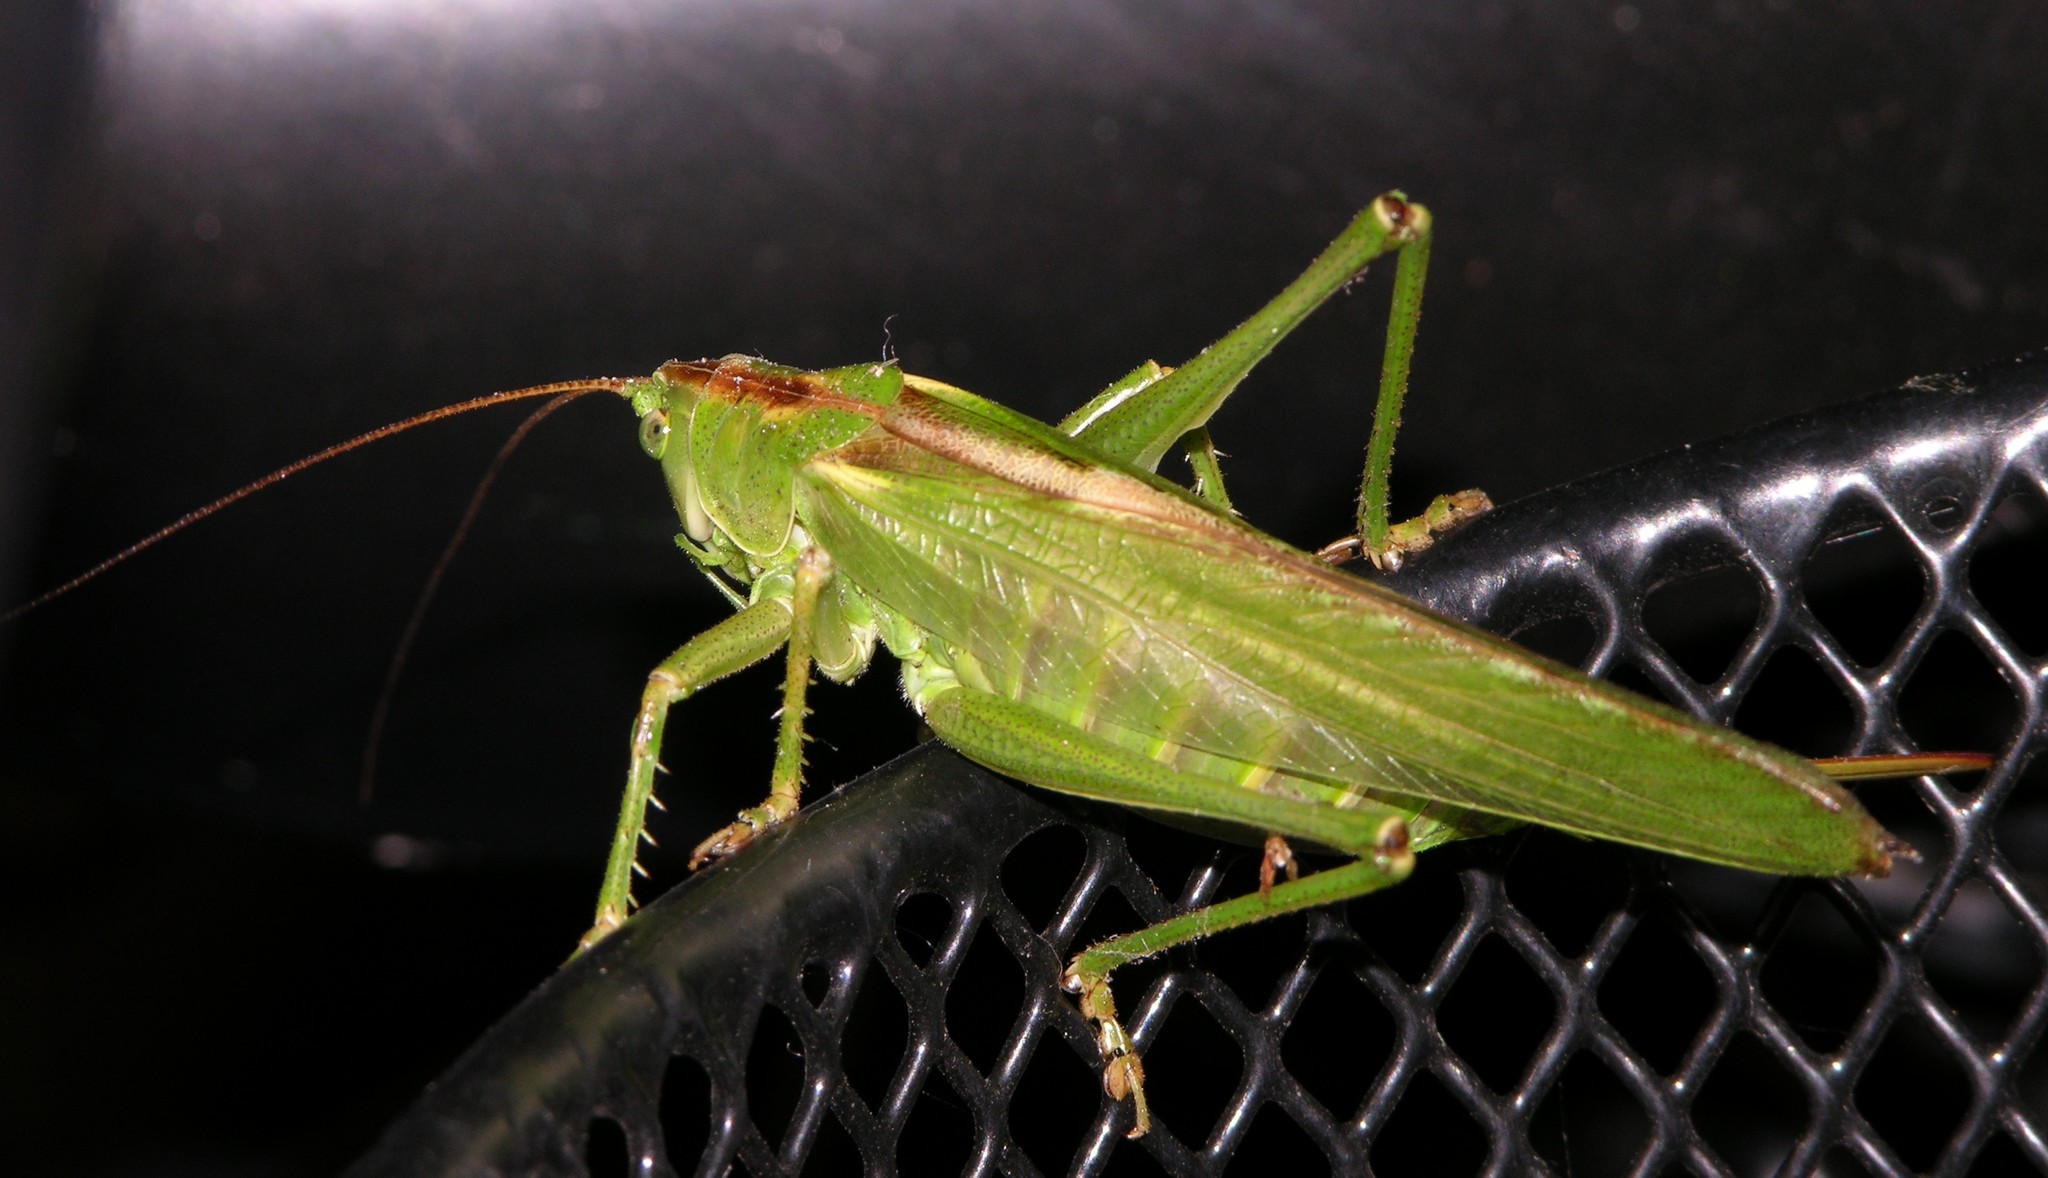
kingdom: Animalia
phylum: Arthropoda
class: Insecta
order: Orthoptera
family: Tettigoniidae
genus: Tettigonia
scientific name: Tettigonia viridissima
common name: Great green bush-cricket
